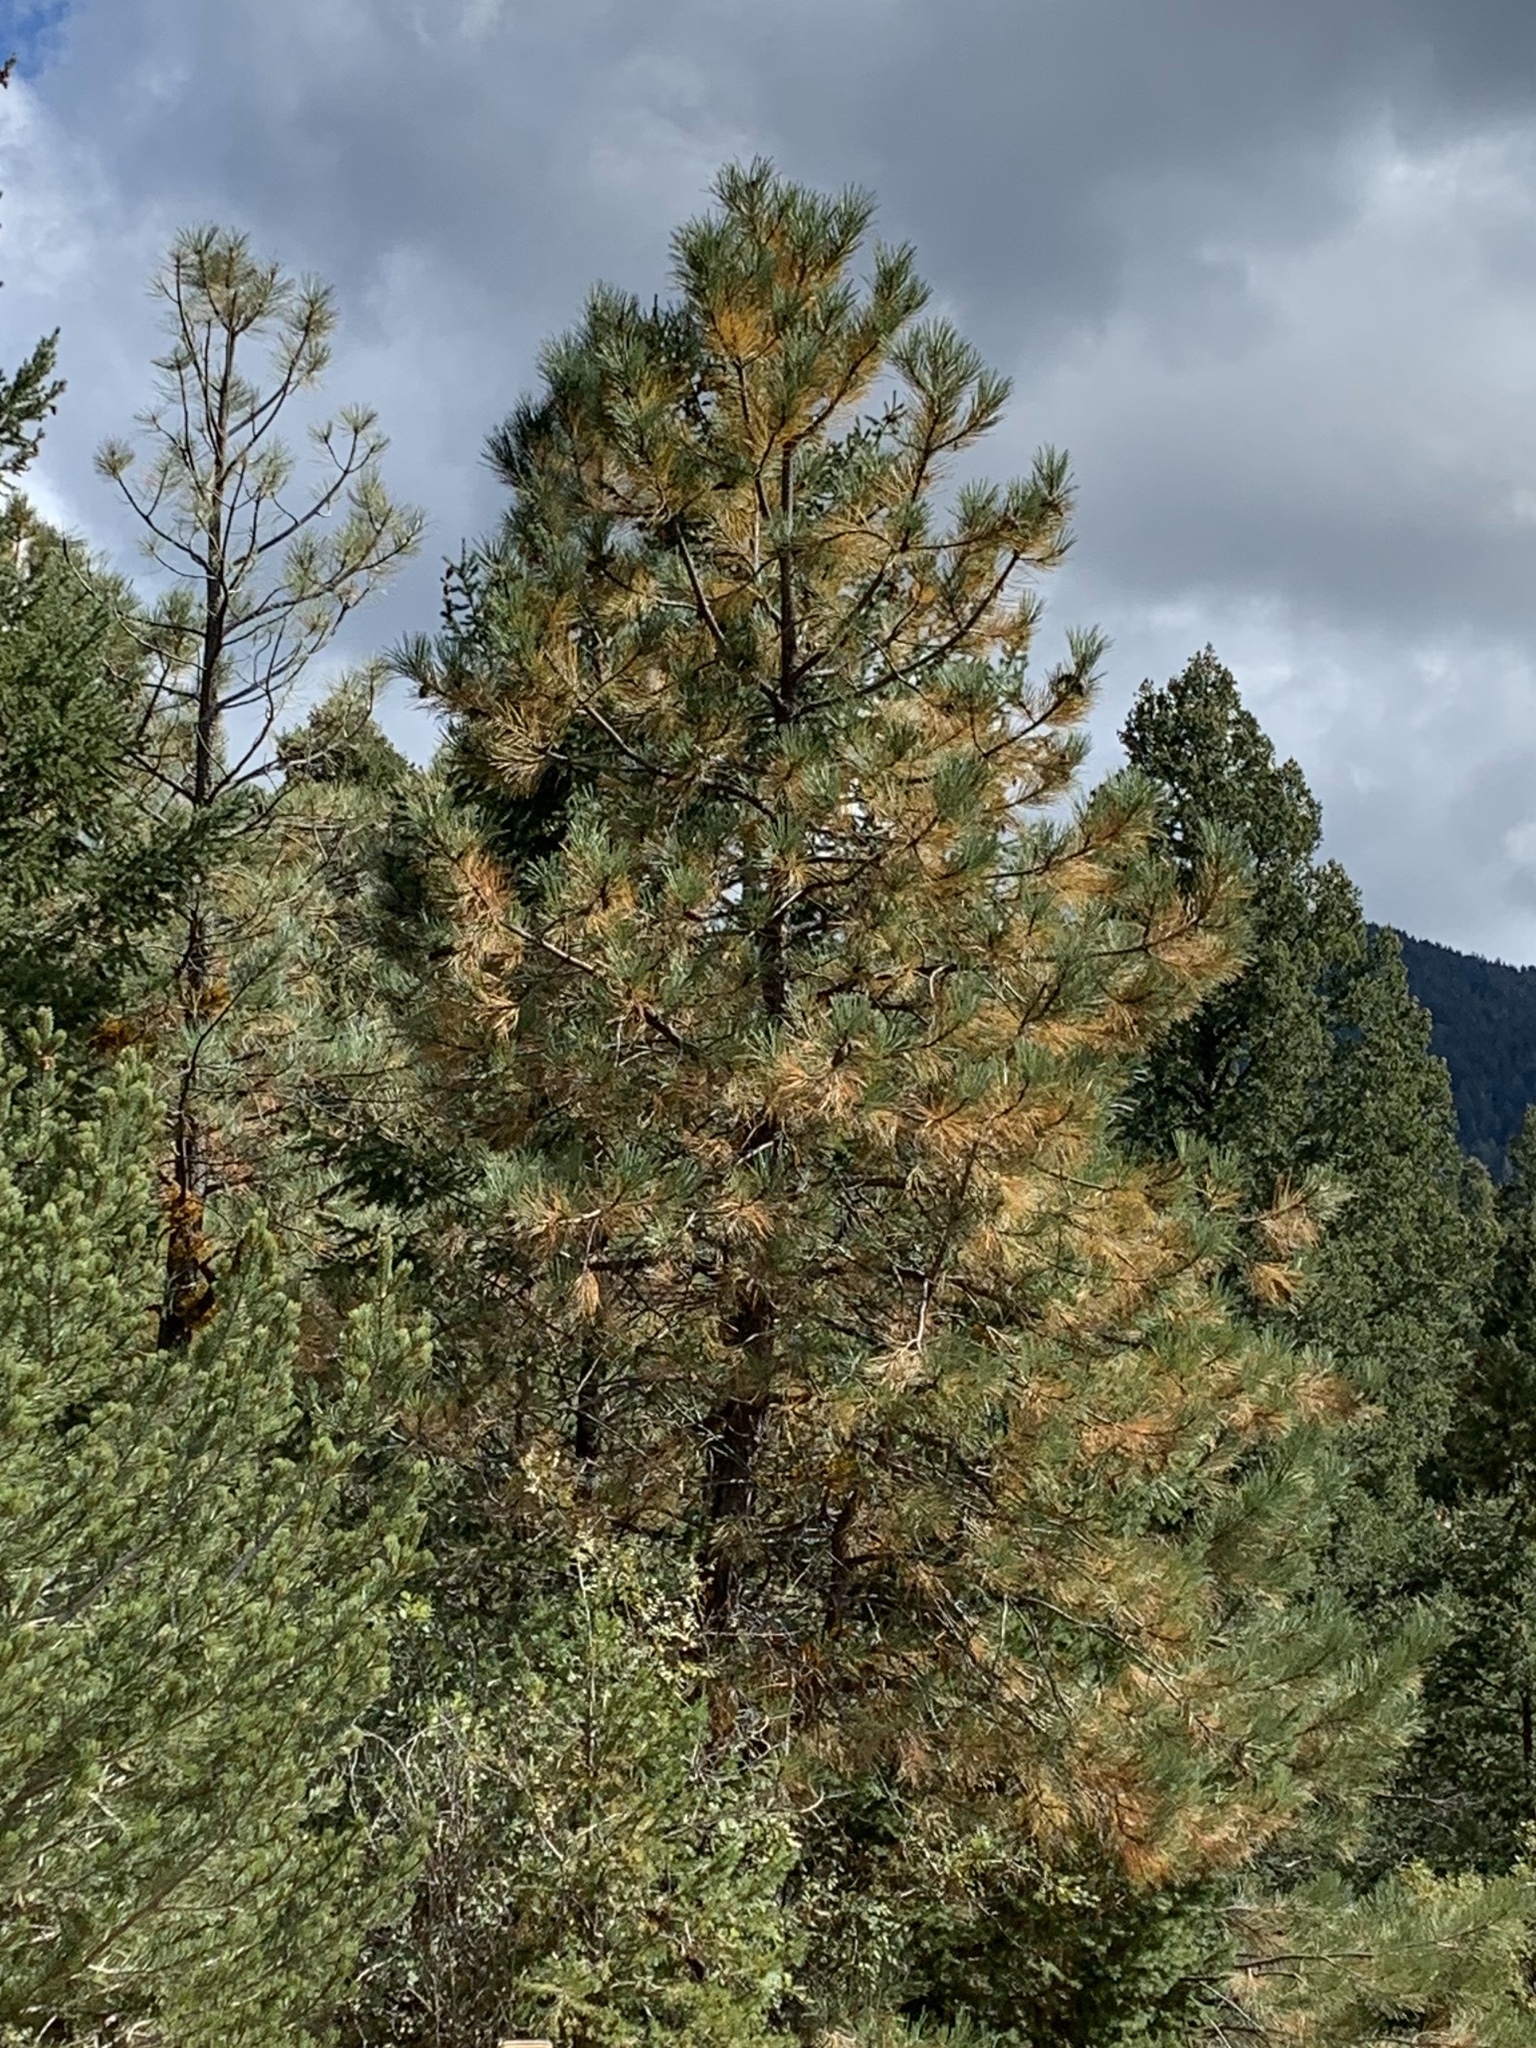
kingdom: Plantae
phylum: Tracheophyta
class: Pinopsida
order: Pinales
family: Pinaceae
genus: Pinus
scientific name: Pinus ponderosa
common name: Western yellow-pine
